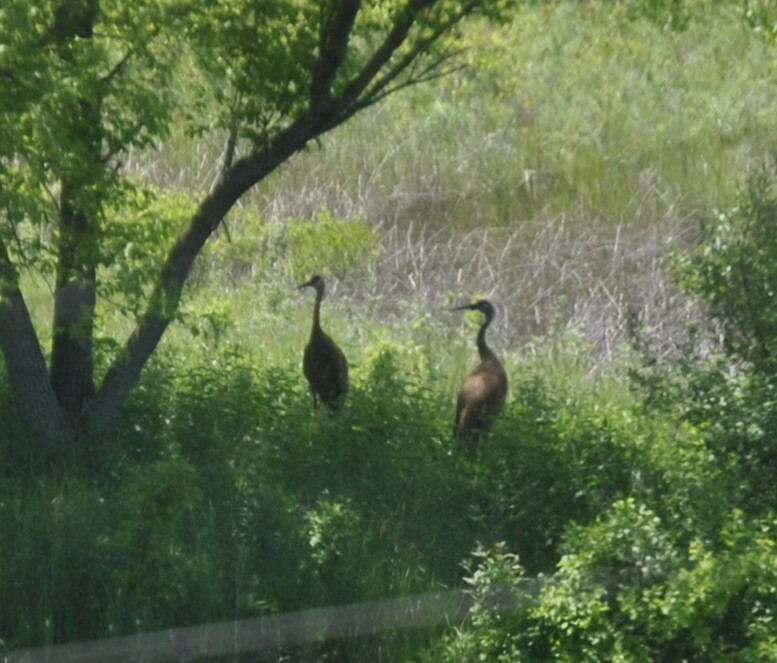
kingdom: Animalia
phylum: Chordata
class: Aves
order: Gruiformes
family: Gruidae
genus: Grus
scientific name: Grus canadensis
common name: Sandhill crane
